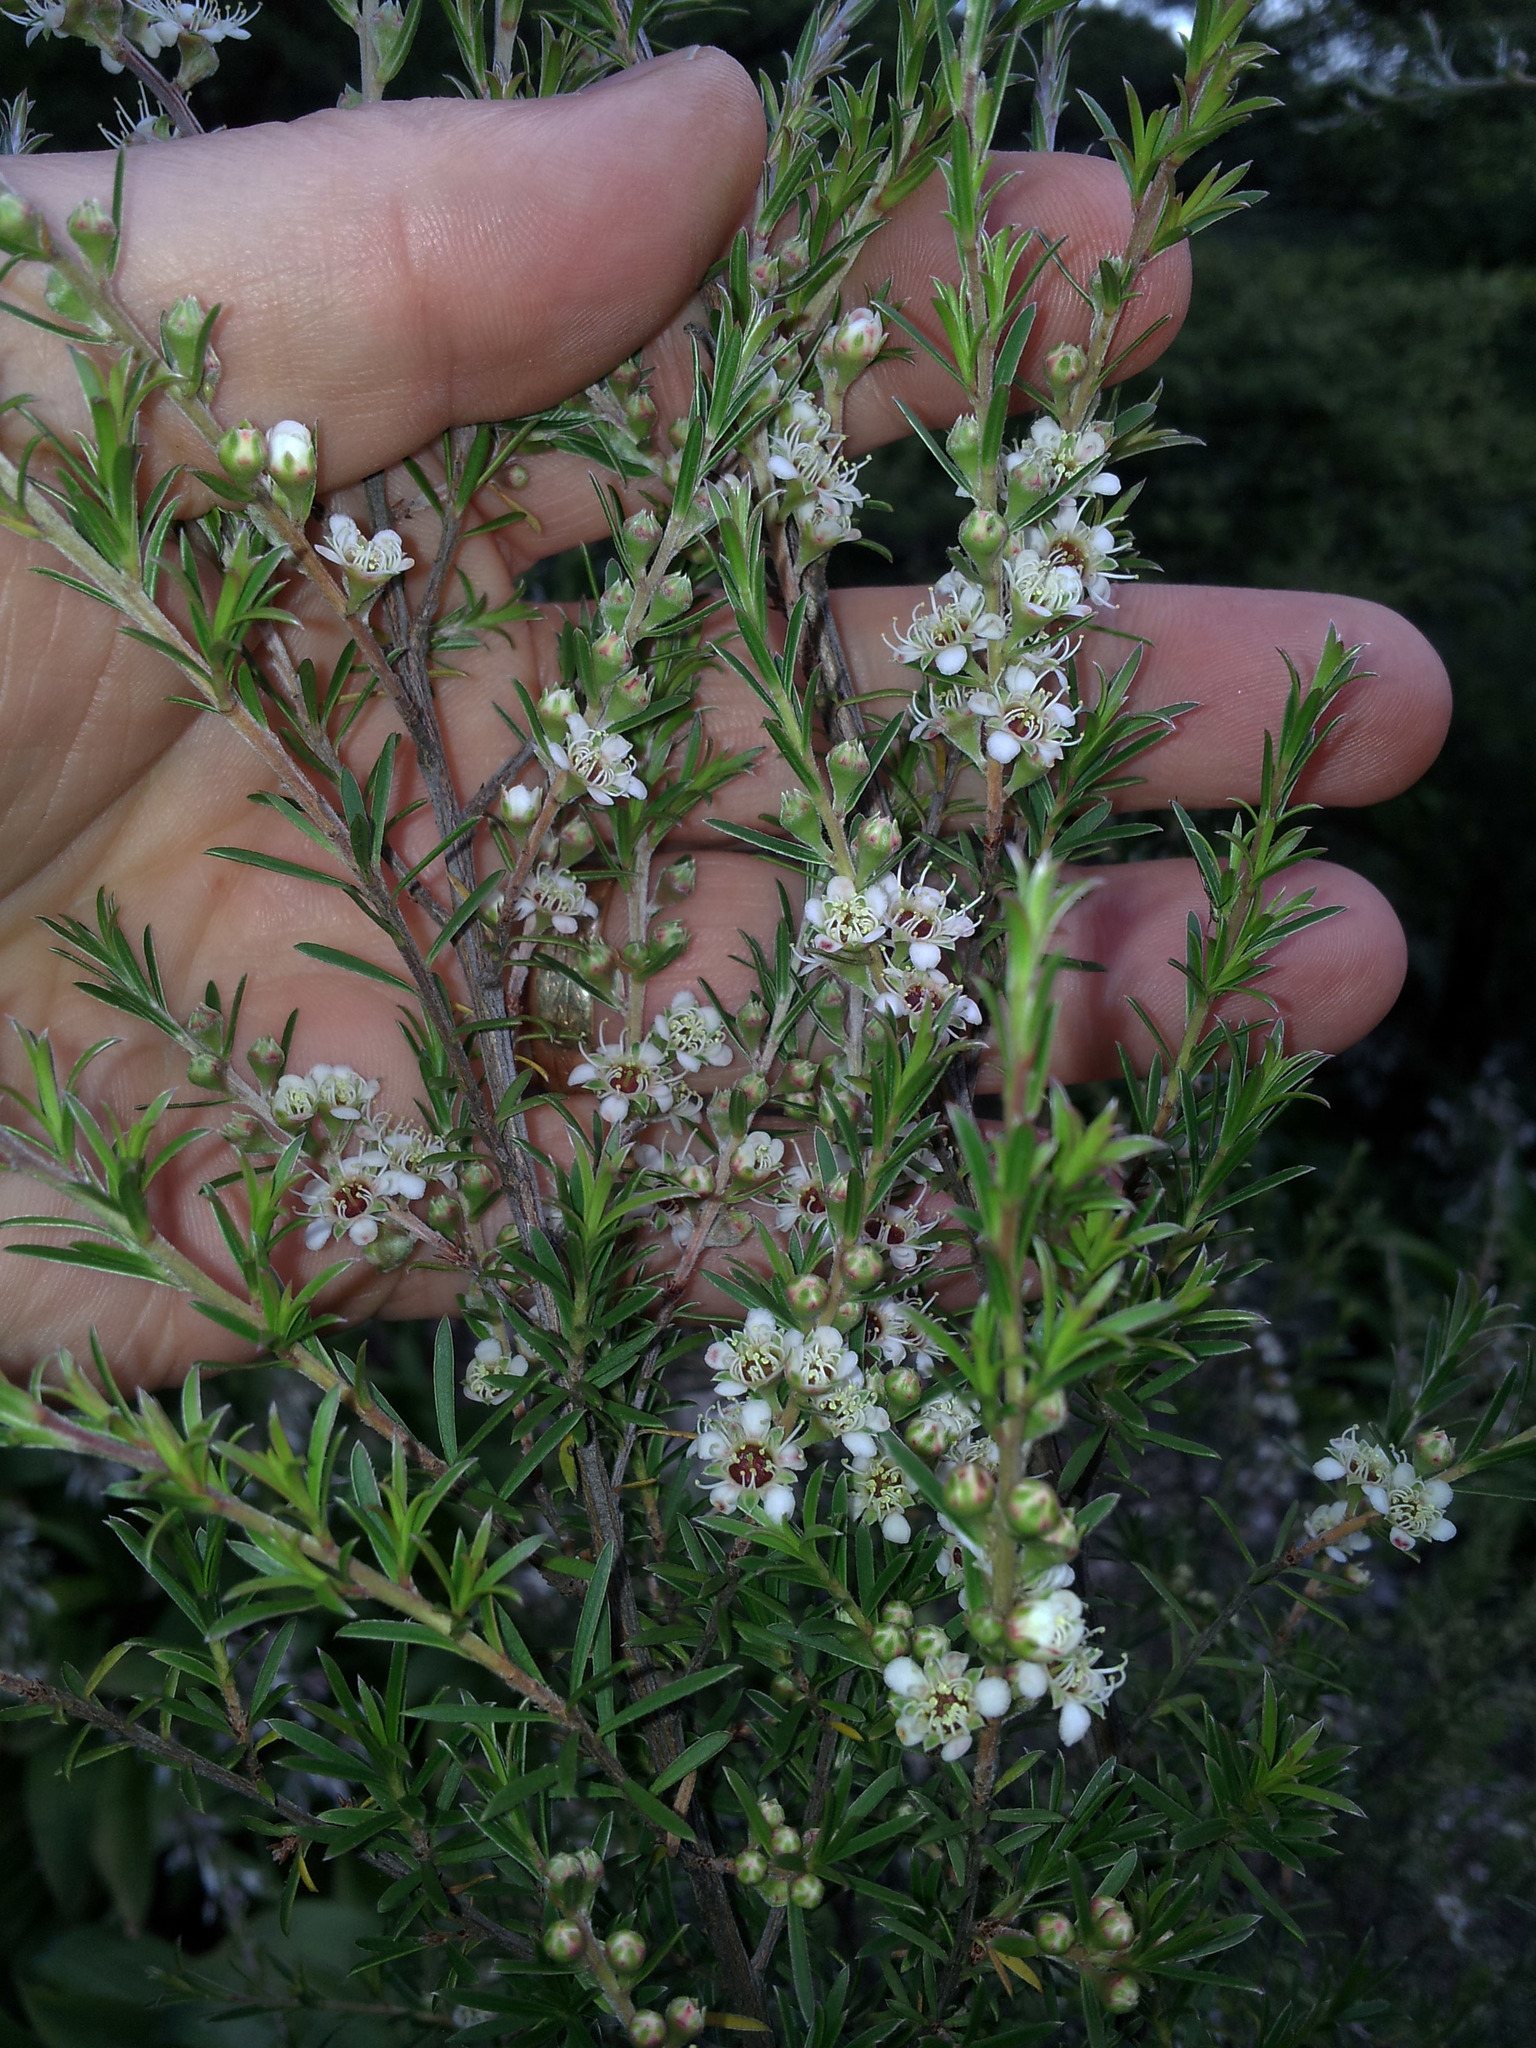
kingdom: Plantae
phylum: Tracheophyta
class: Magnoliopsida
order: Myrtales
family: Myrtaceae
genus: Kunzea
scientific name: Kunzea linearis
